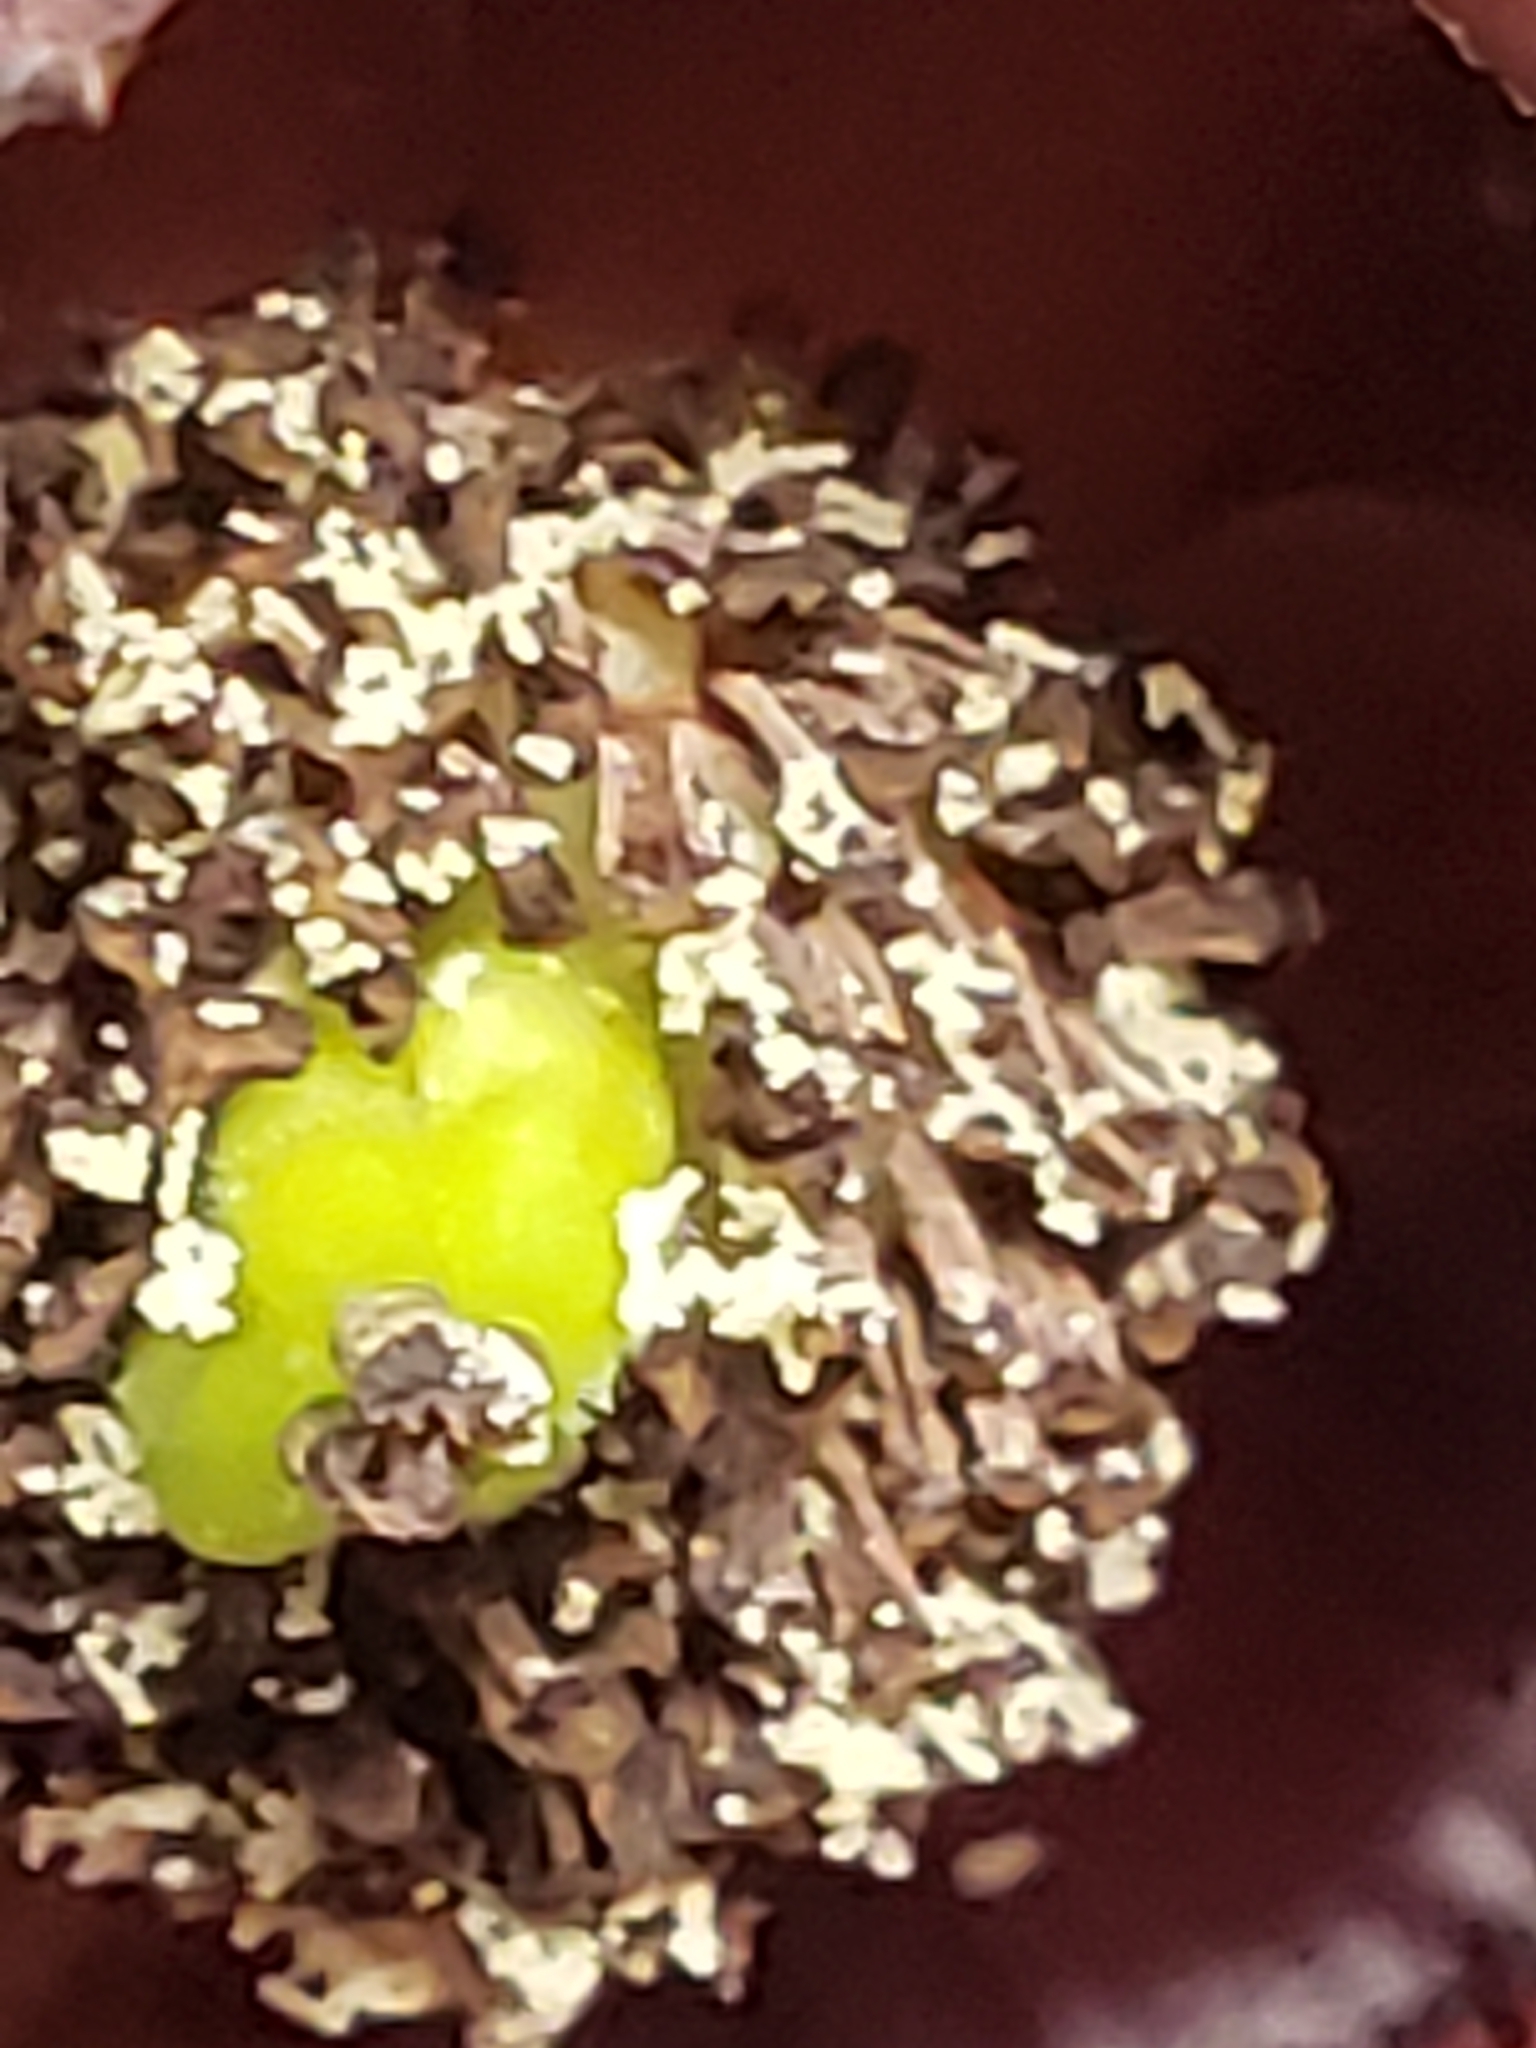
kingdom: Plantae
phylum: Tracheophyta
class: Magnoliopsida
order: Magnoliales
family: Annonaceae
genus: Asimina
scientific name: Asimina triloba
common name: Dog-banana
